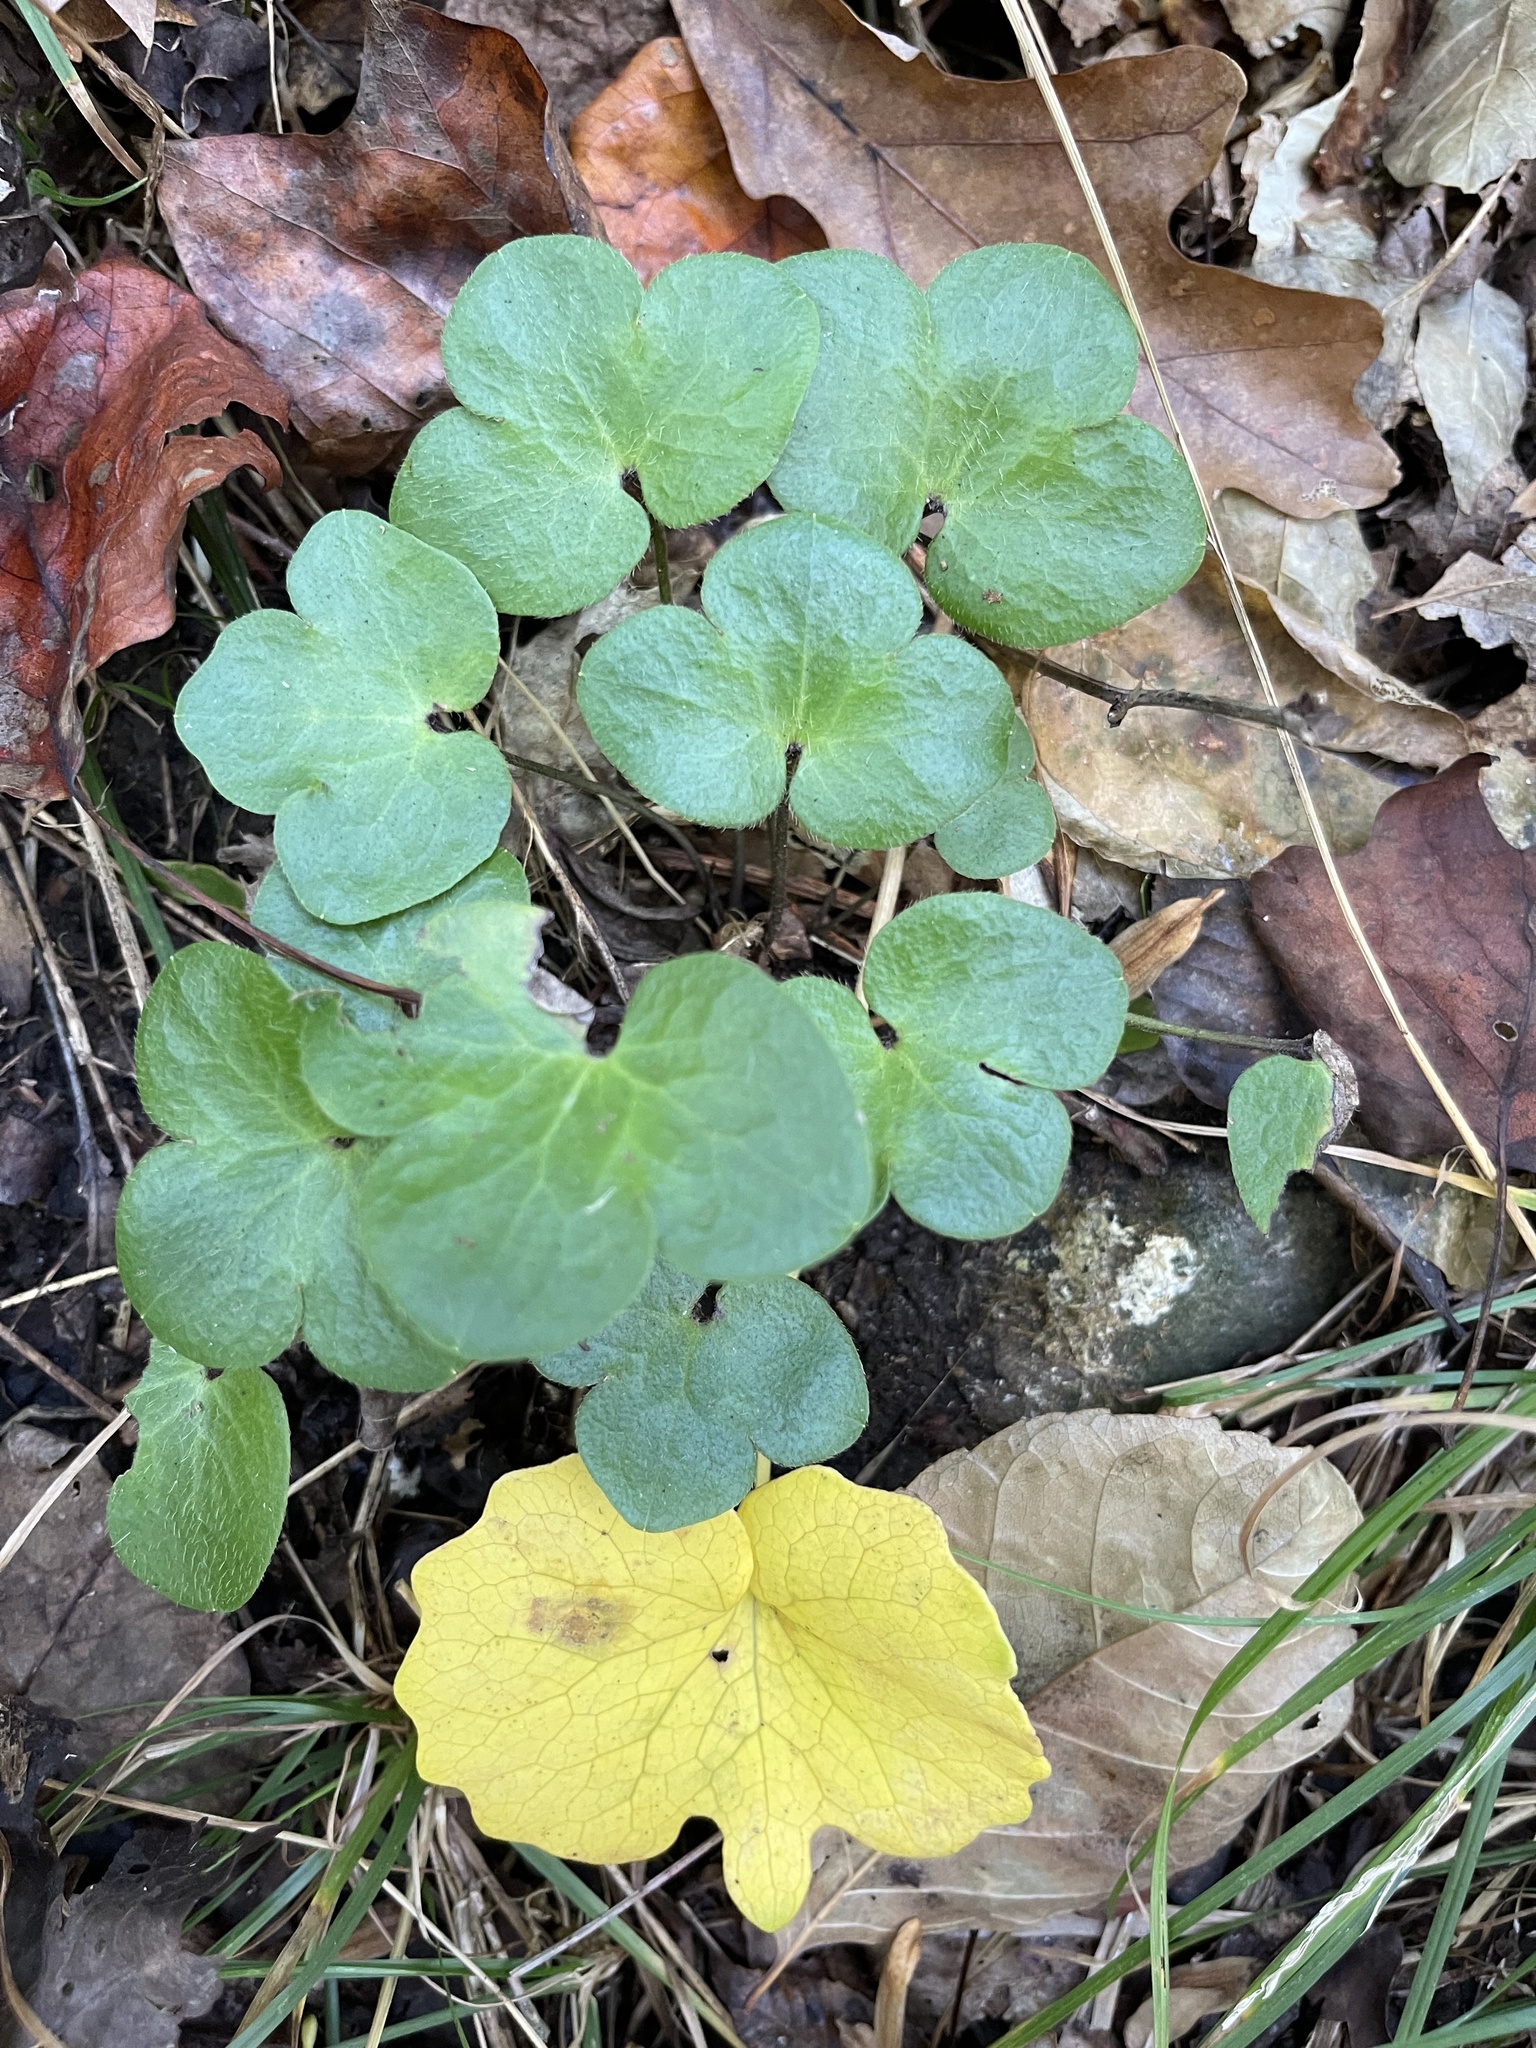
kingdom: Plantae
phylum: Tracheophyta
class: Magnoliopsida
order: Ranunculales
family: Ranunculaceae
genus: Hepatica
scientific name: Hepatica americana
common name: American hepatica
